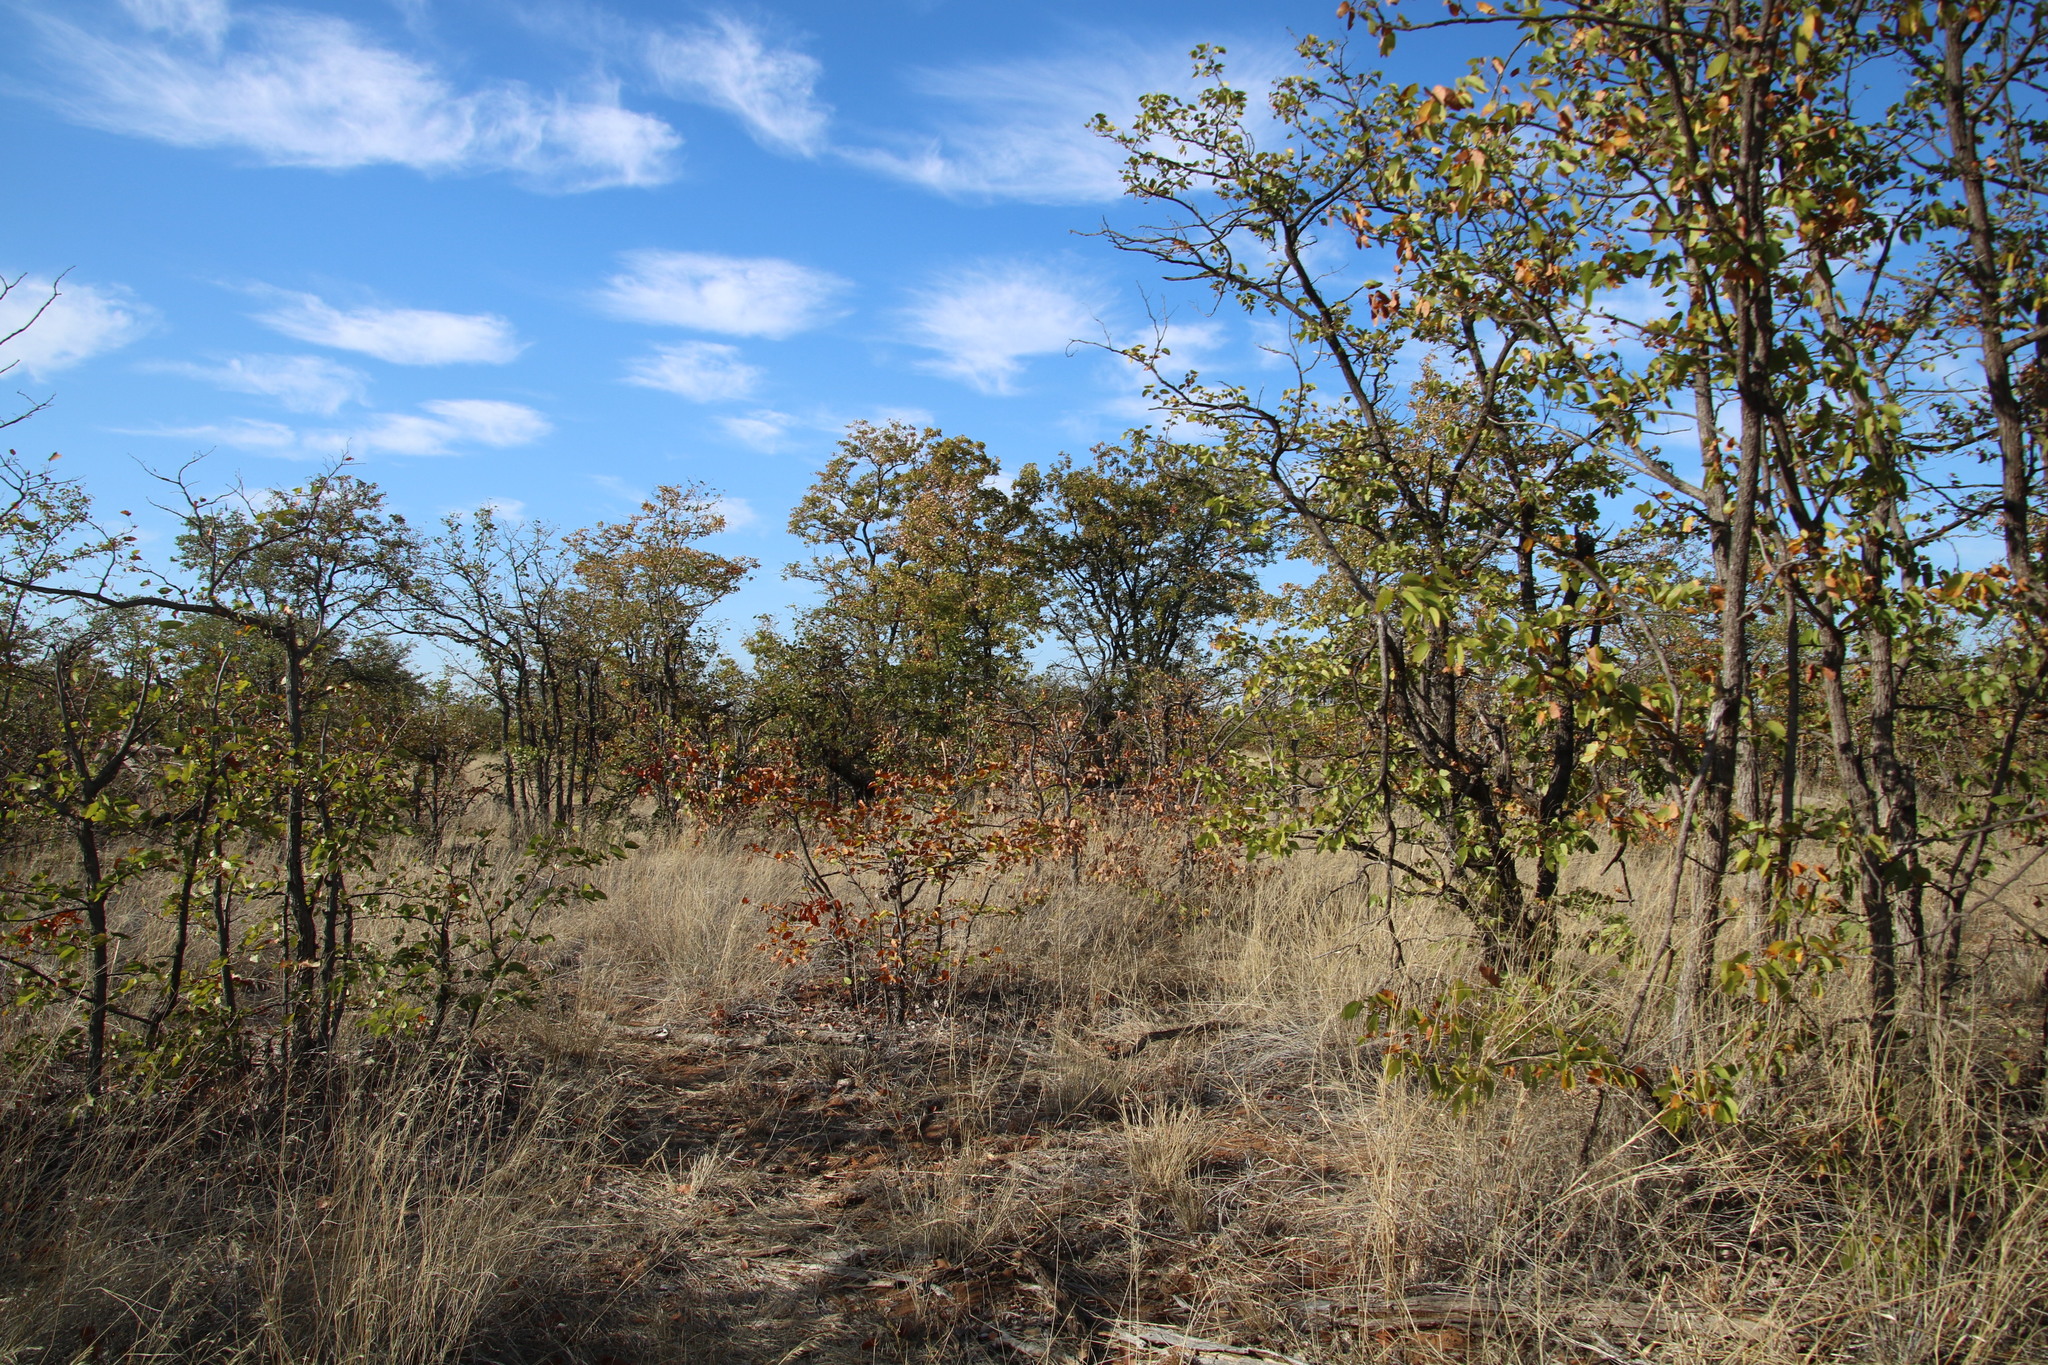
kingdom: Plantae
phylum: Tracheophyta
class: Magnoliopsida
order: Fabales
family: Fabaceae
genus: Colophospermum
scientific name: Colophospermum mopane
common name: Mopane
